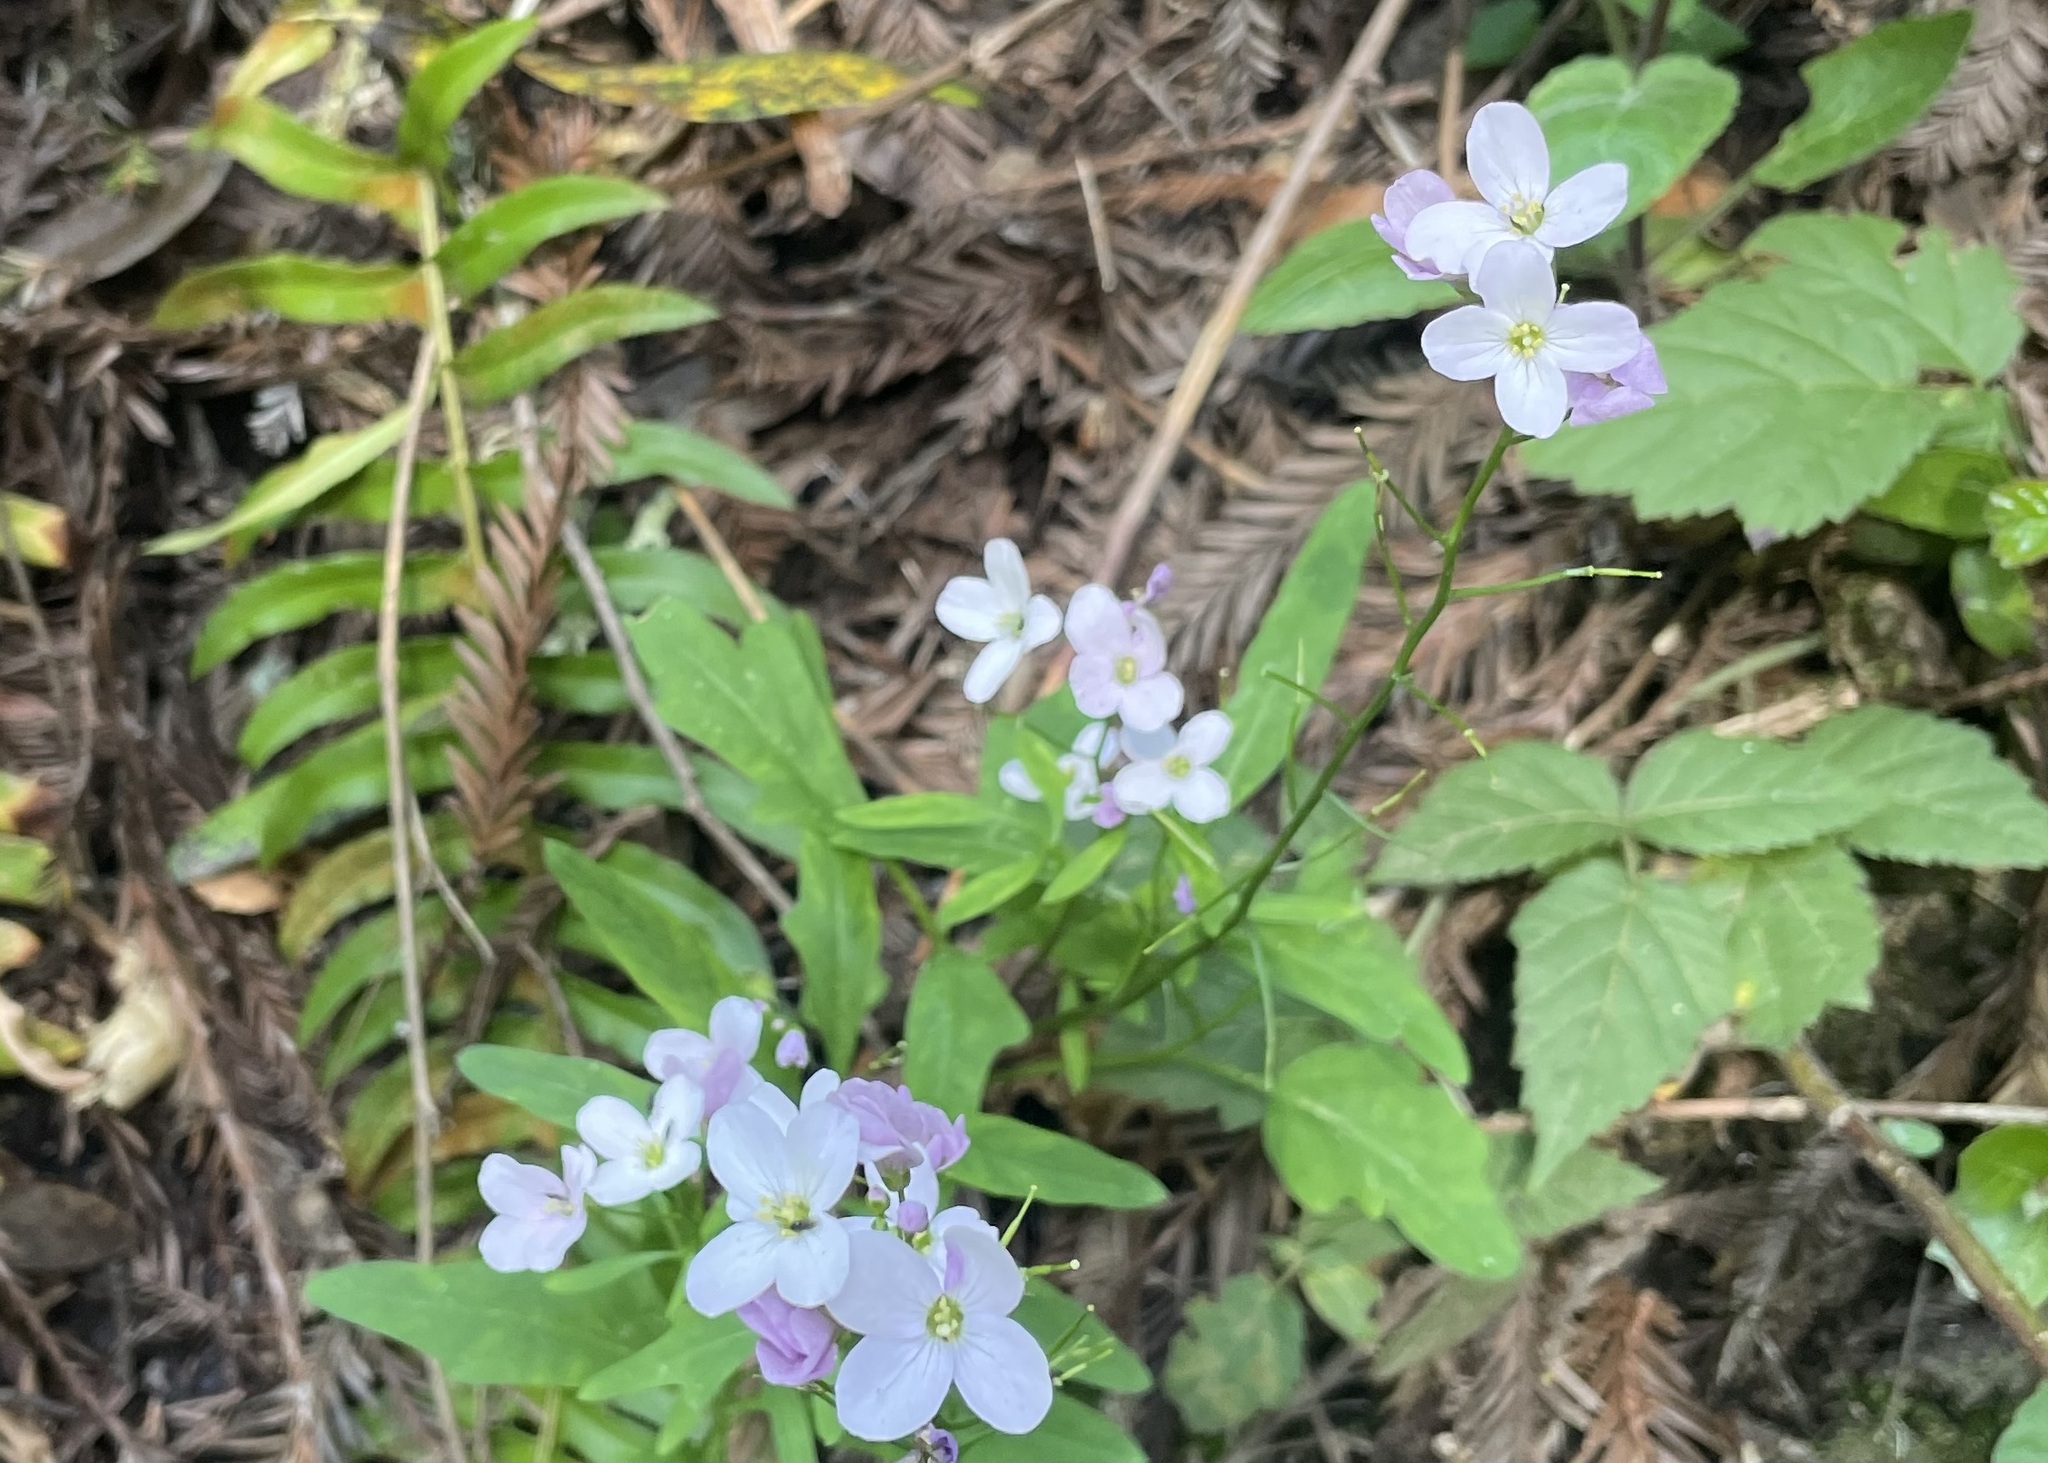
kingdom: Plantae
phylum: Tracheophyta
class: Magnoliopsida
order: Brassicales
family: Brassicaceae
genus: Cardamine
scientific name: Cardamine californica
